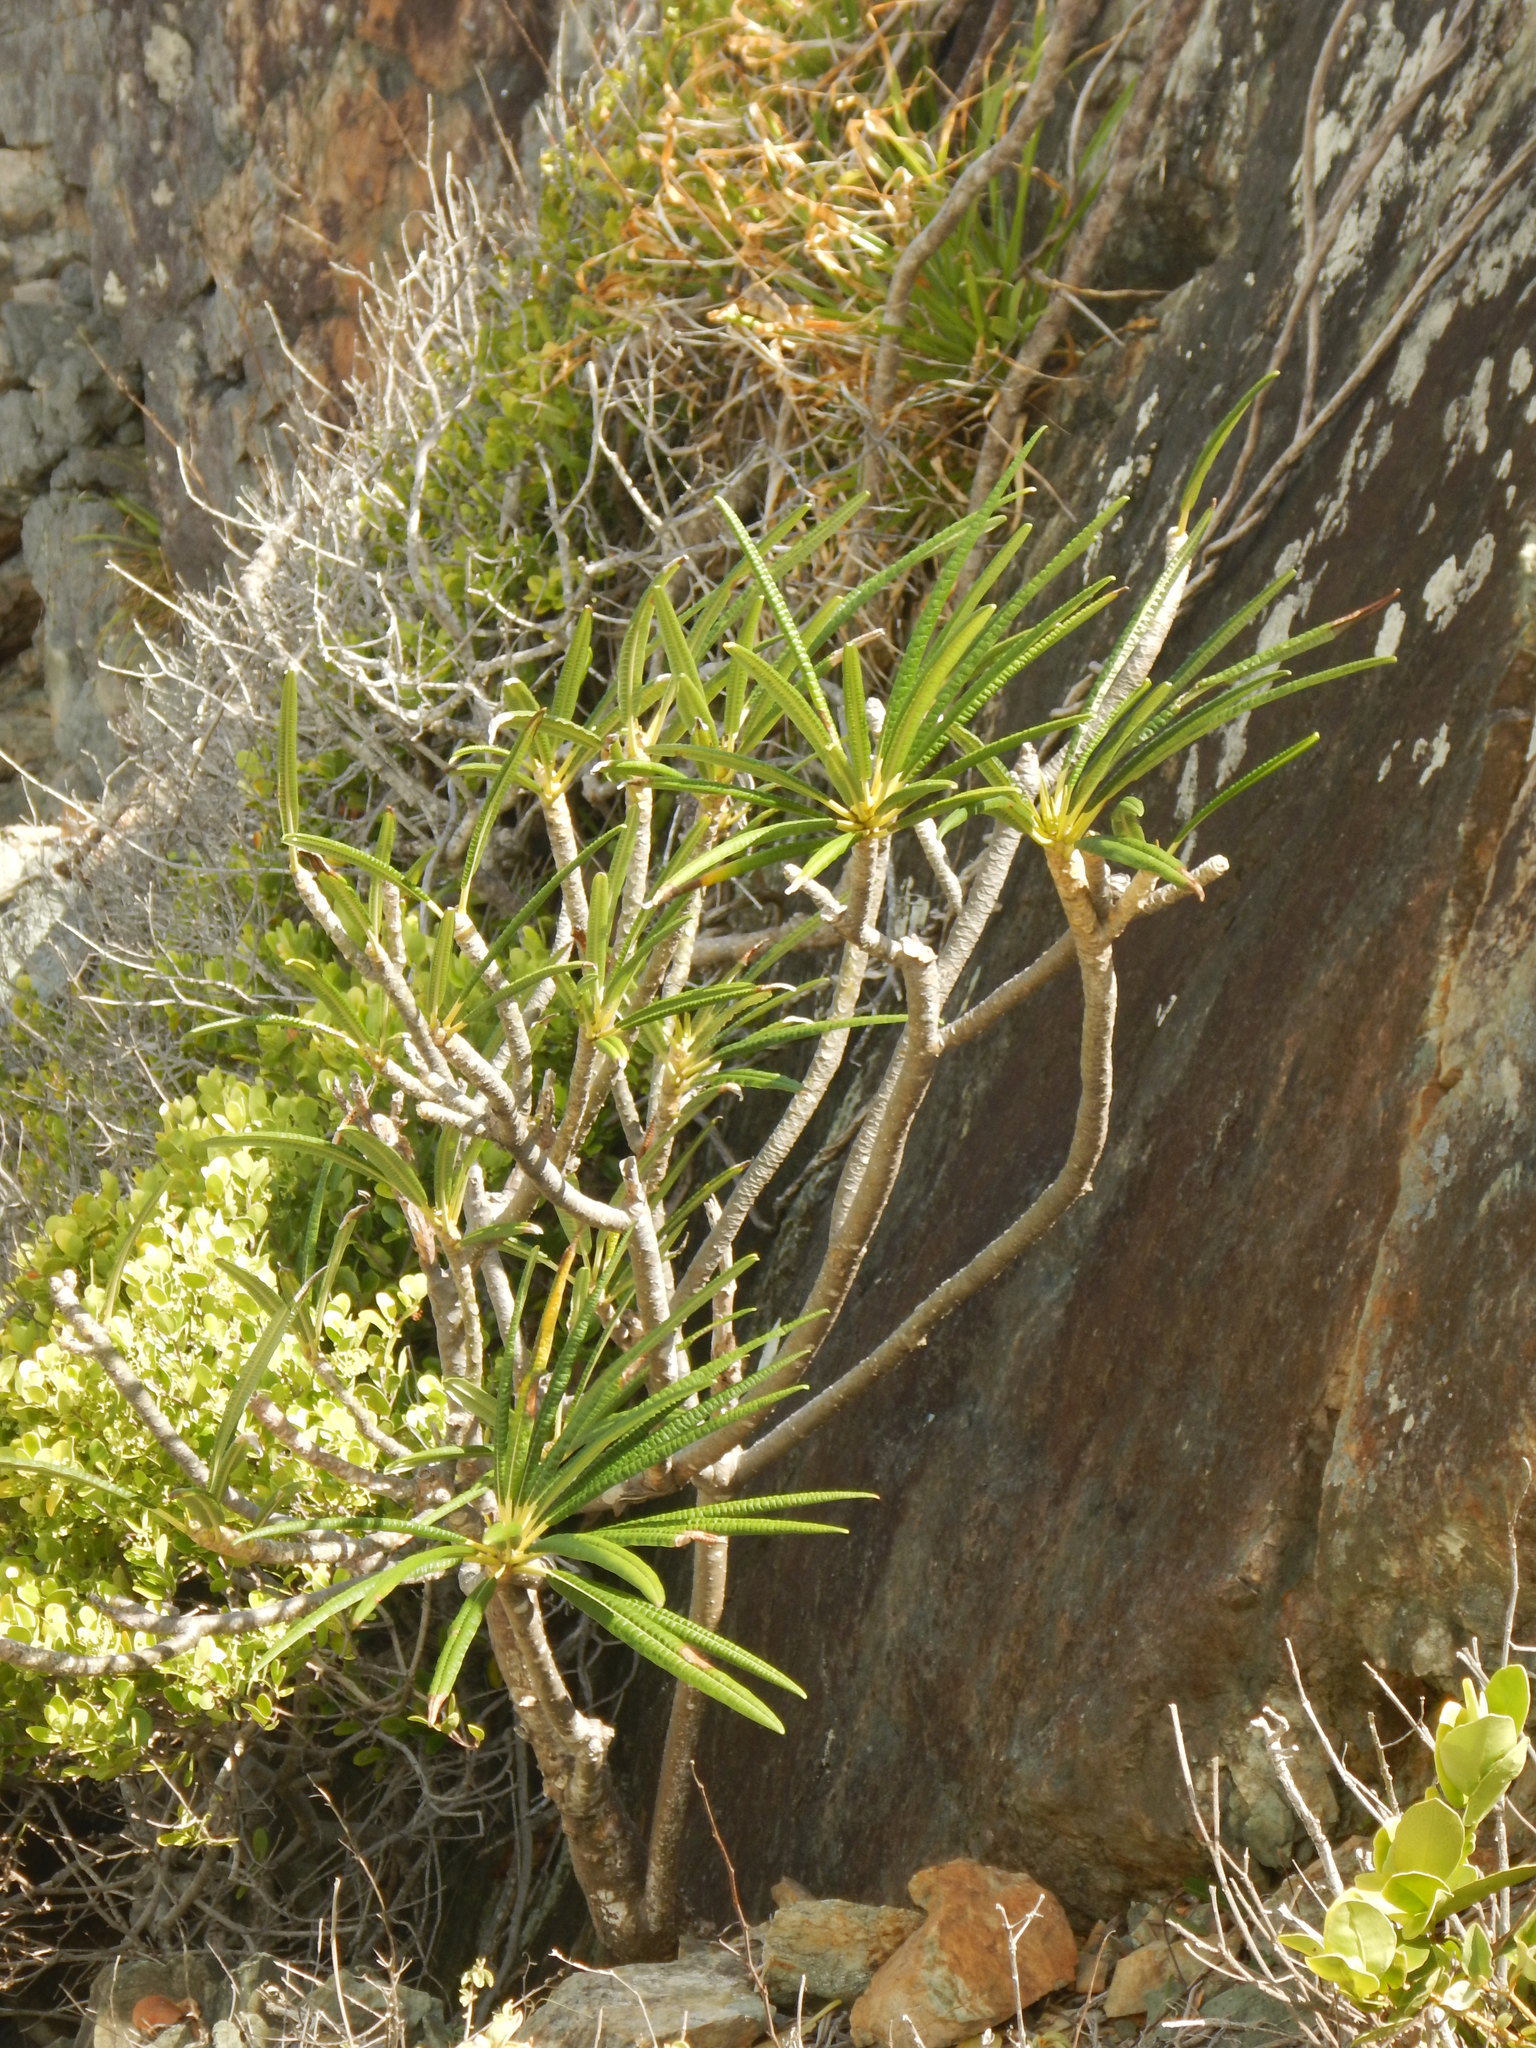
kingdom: Plantae
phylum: Tracheophyta
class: Magnoliopsida
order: Gentianales
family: Apocynaceae
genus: Plumeria
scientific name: Plumeria alba
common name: Wild frangipani
